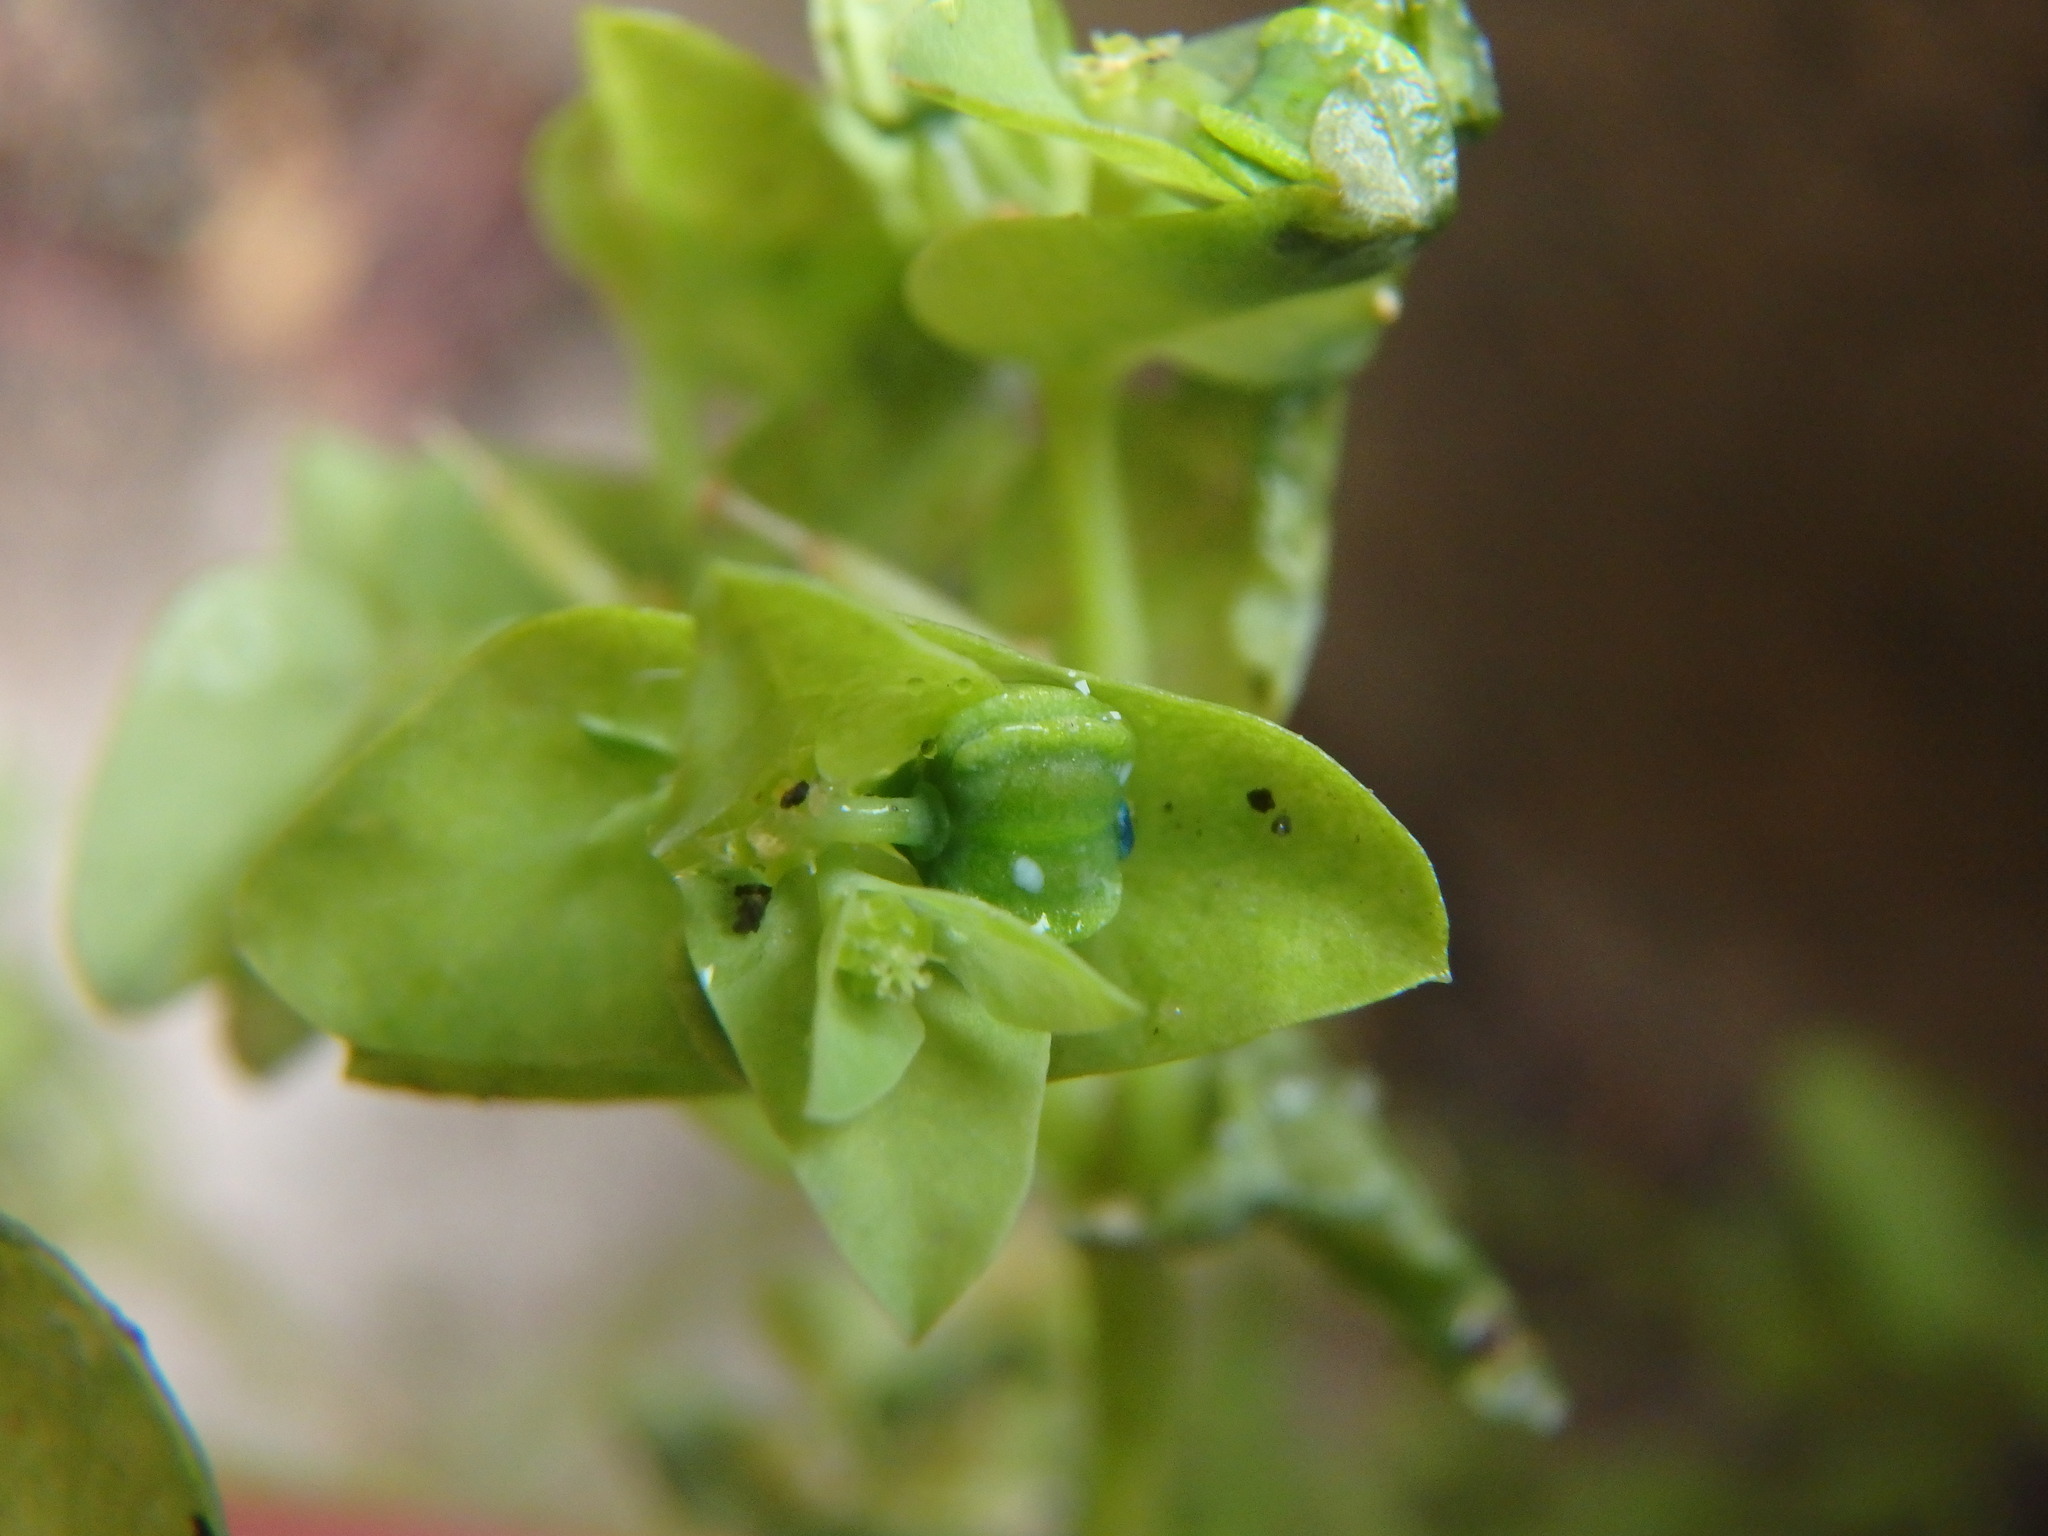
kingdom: Plantae
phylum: Tracheophyta
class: Magnoliopsida
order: Malpighiales
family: Euphorbiaceae
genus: Euphorbia
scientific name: Euphorbia peplus
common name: Petty spurge
